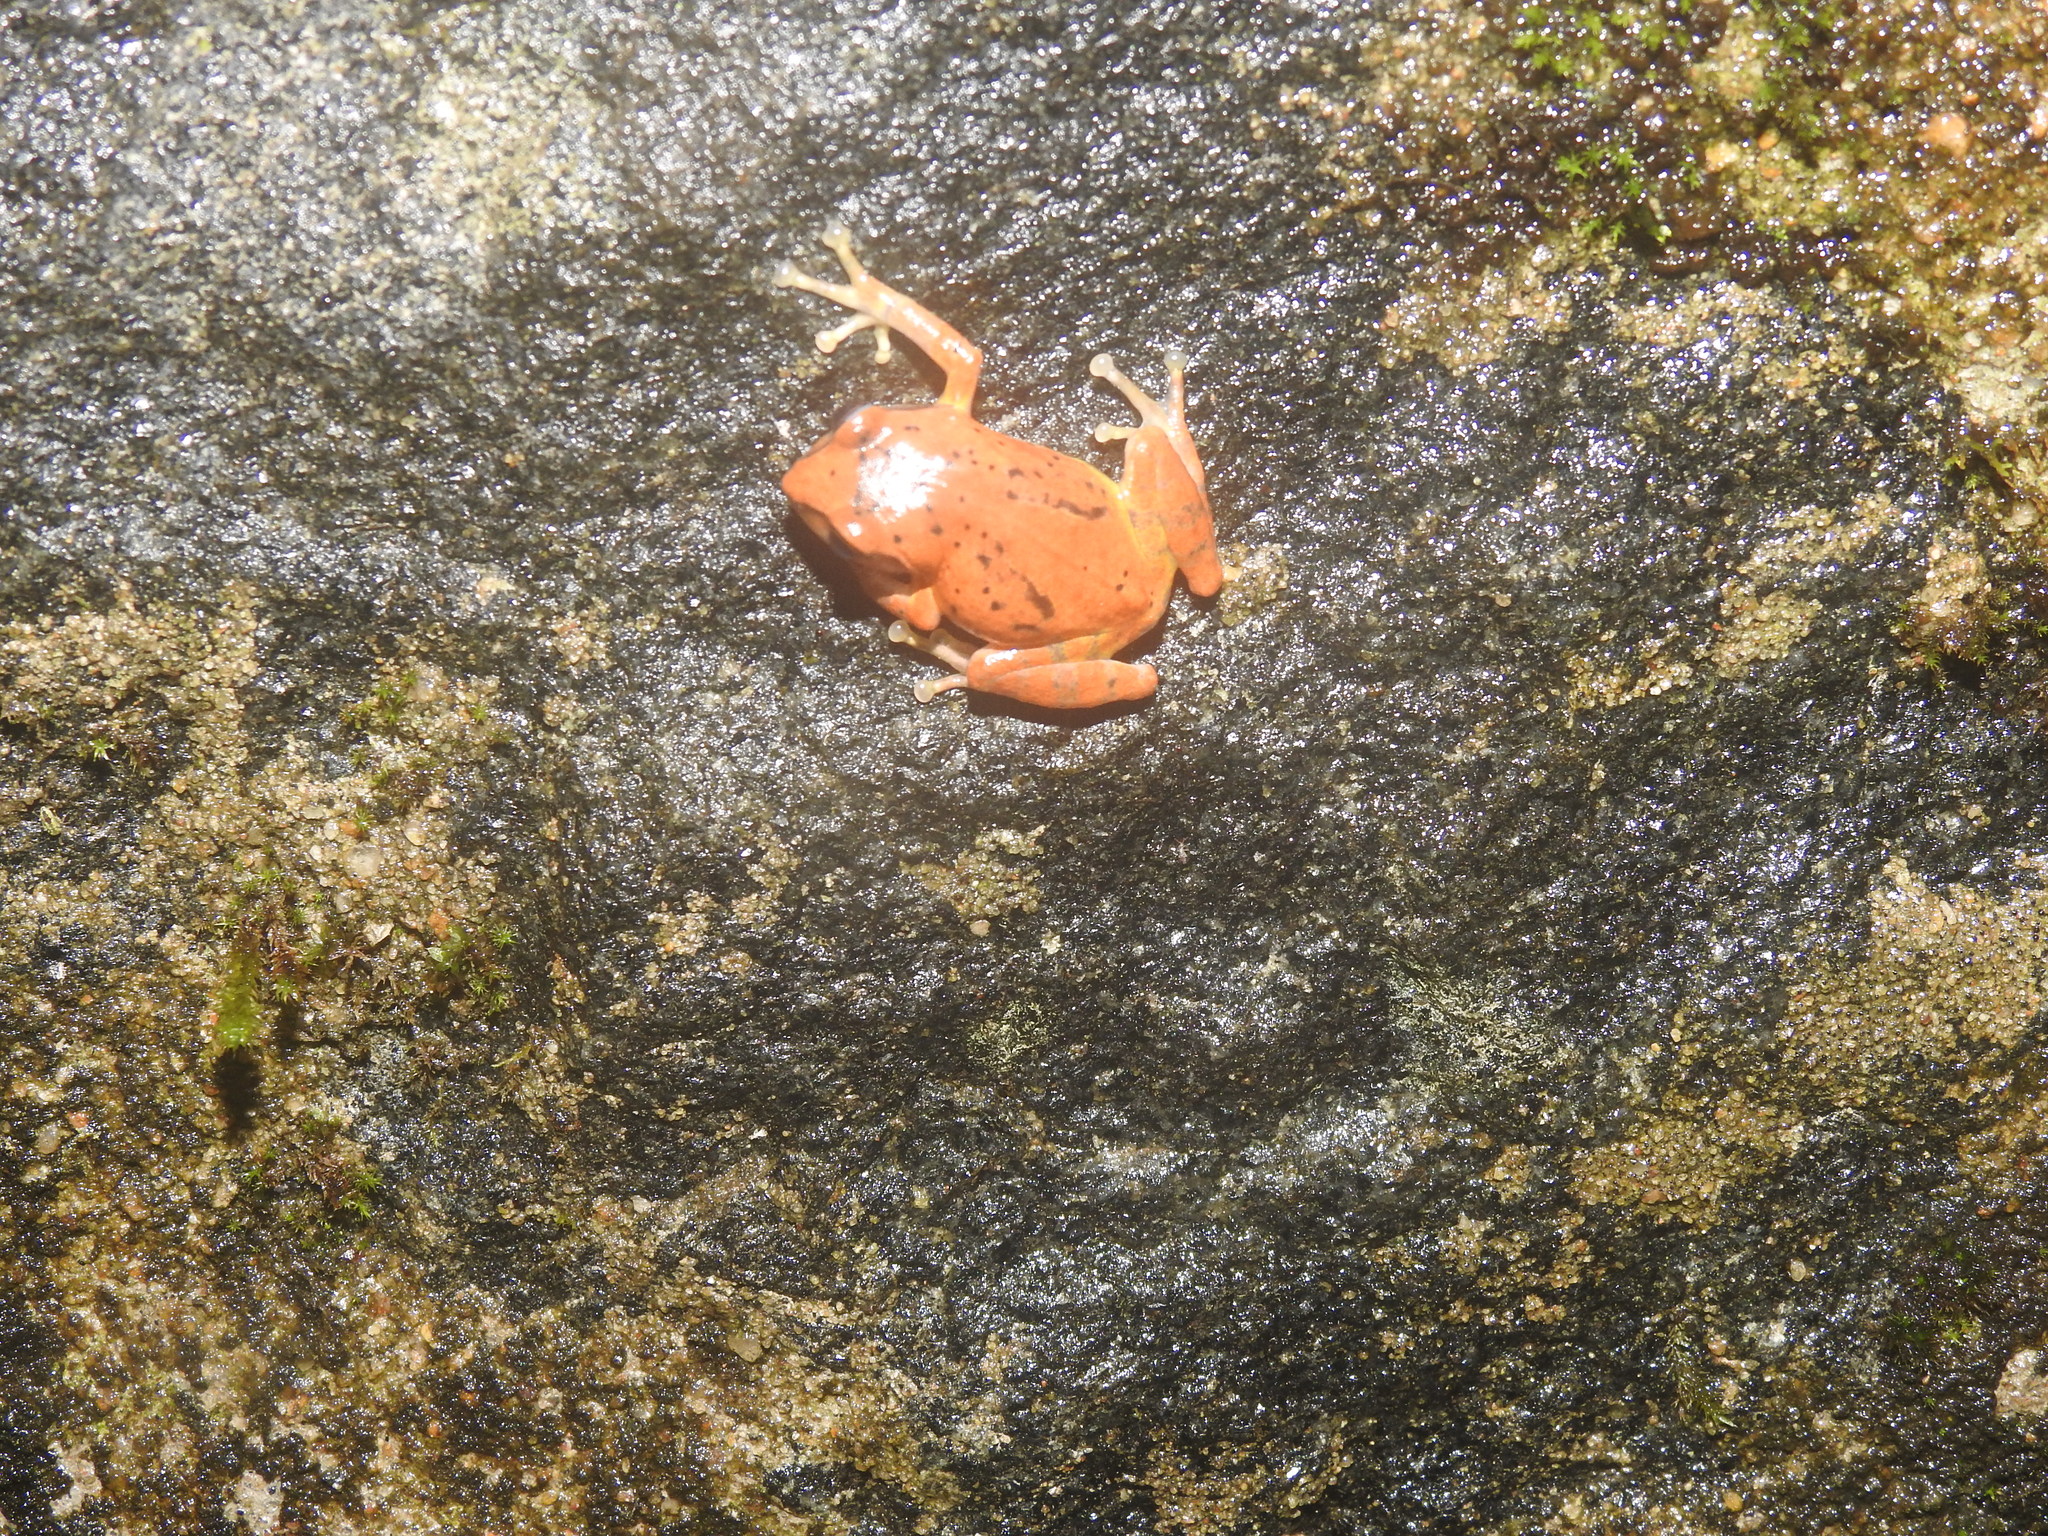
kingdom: Animalia
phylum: Chordata
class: Amphibia
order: Anura
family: Rhacophoridae
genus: Raorchestes
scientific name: Raorchestes dubois
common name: Koadaikanal bush frog
